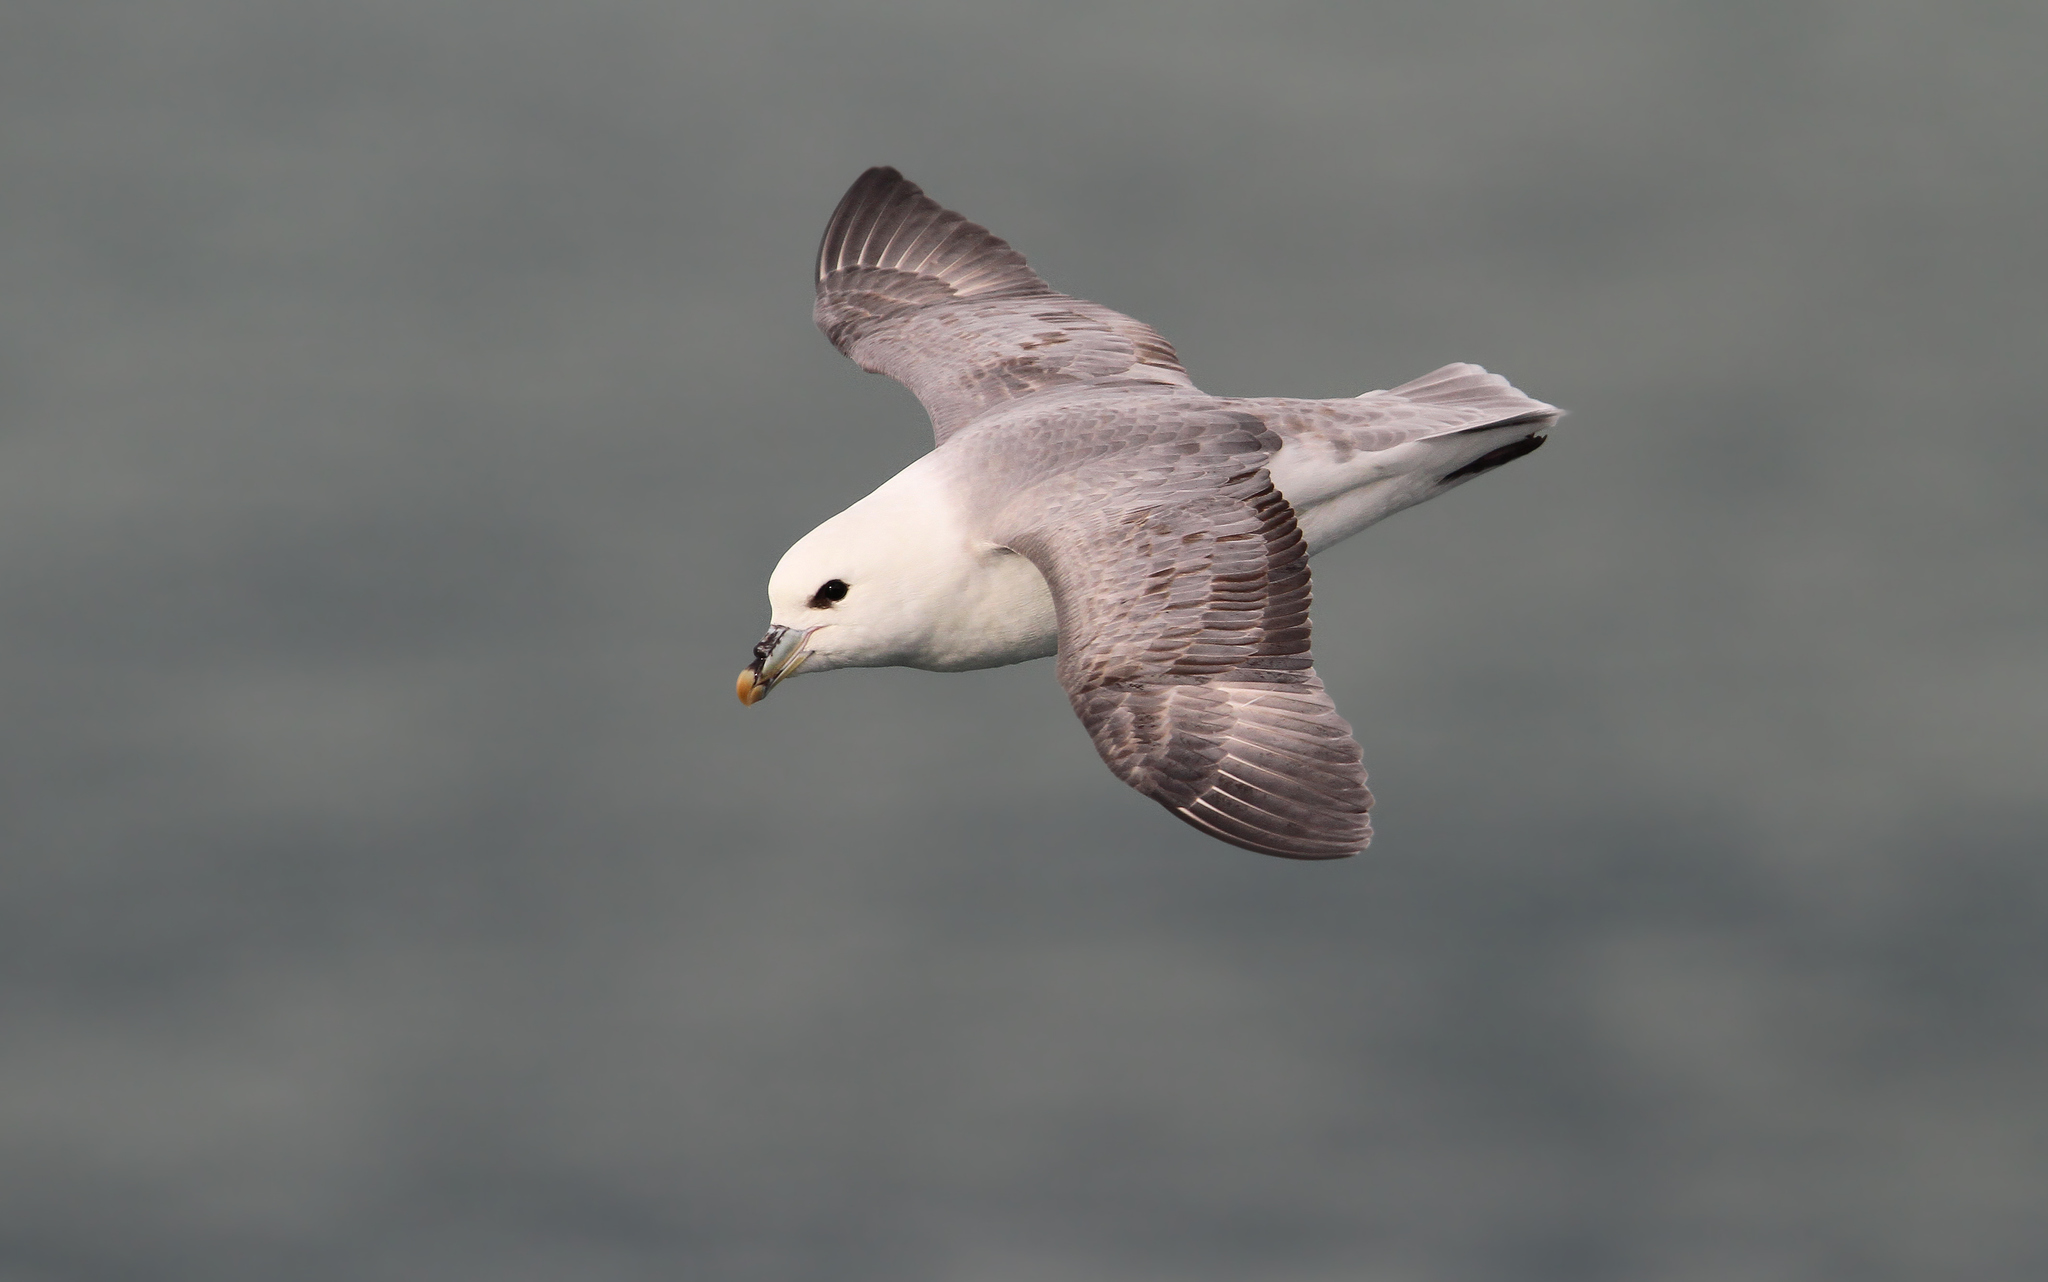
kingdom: Animalia
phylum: Chordata
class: Aves
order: Procellariiformes
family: Procellariidae
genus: Fulmarus
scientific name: Fulmarus glacialis
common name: Northern fulmar
